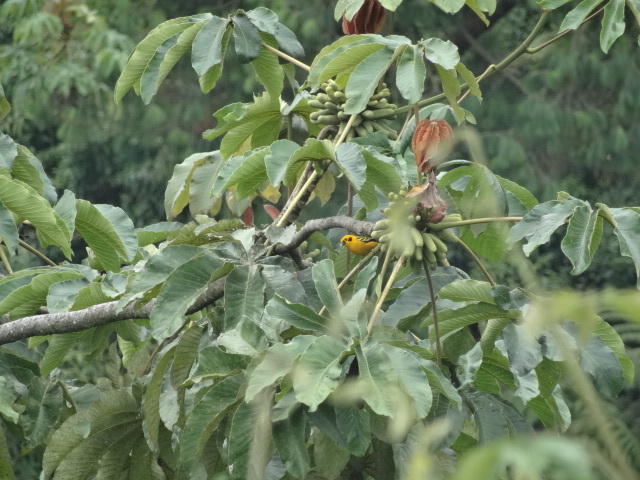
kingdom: Animalia
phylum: Chordata
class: Aves
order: Passeriformes
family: Thraupidae
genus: Tangara
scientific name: Tangara arthus
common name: Golden tanager
